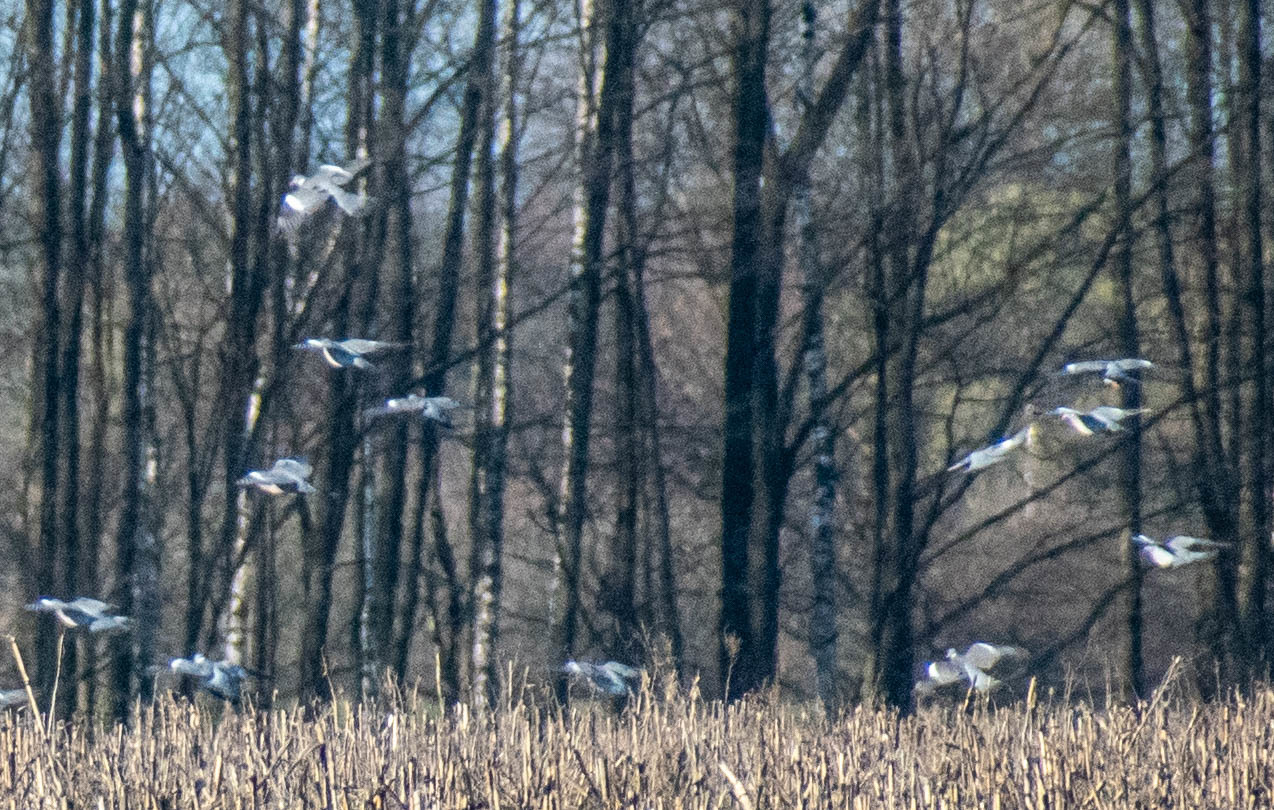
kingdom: Animalia
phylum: Chordata
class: Aves
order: Columbiformes
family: Columbidae
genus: Columba
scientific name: Columba palumbus
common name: Common wood pigeon
